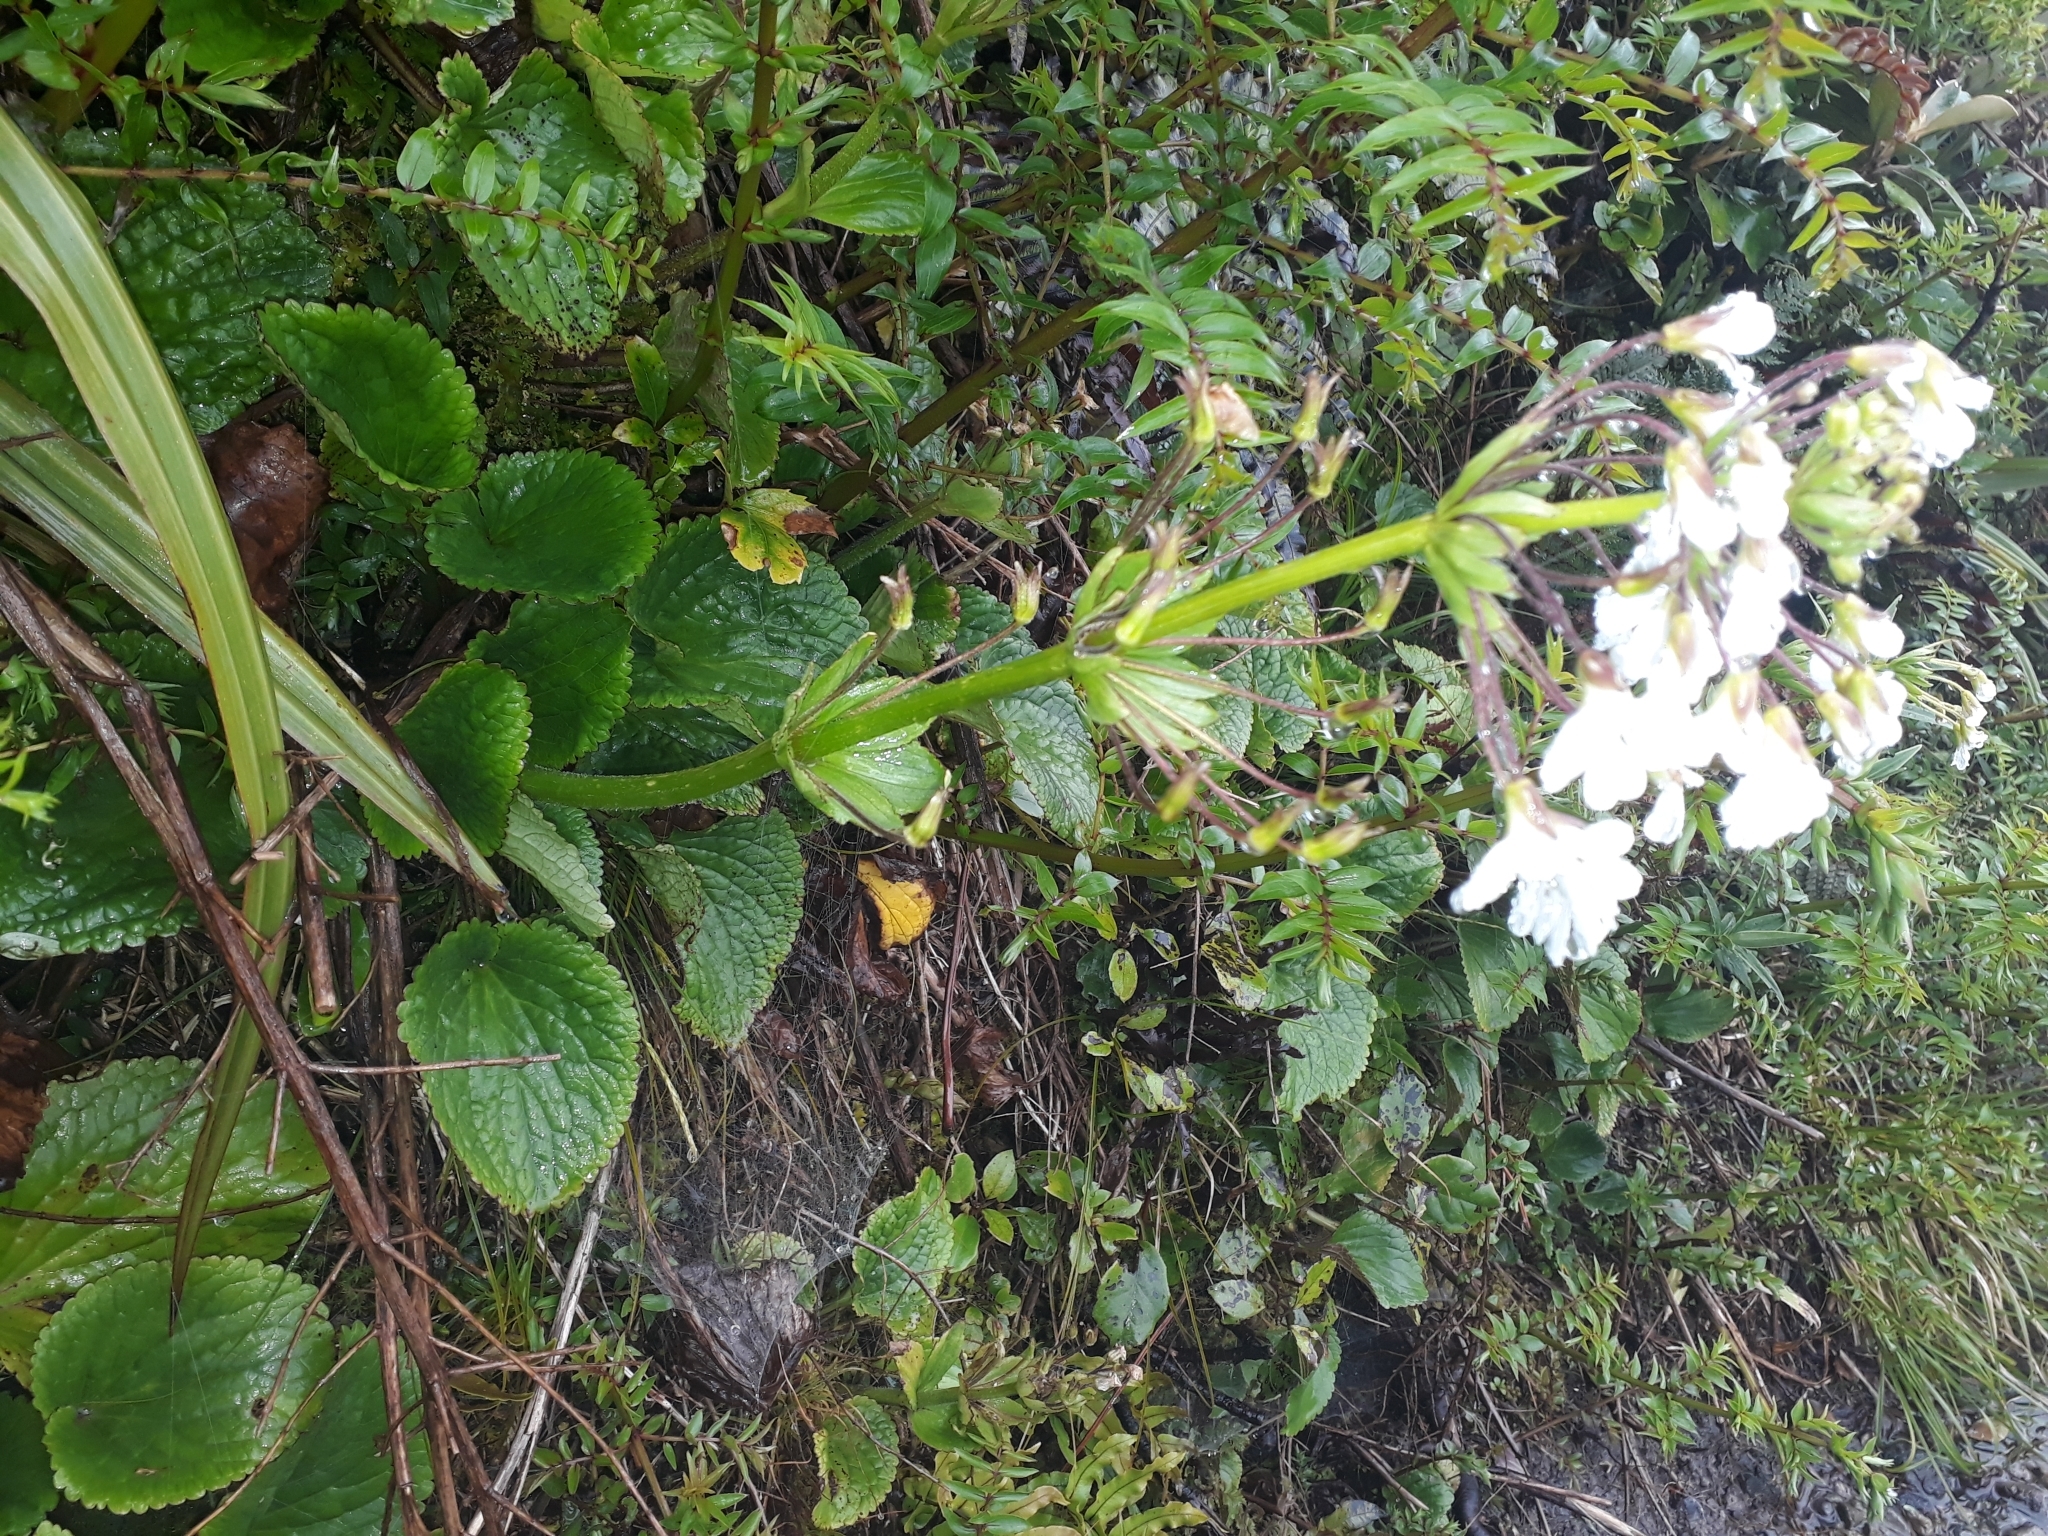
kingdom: Plantae
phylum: Tracheophyta
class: Magnoliopsida
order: Lamiales
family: Plantaginaceae
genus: Ourisia
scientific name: Ourisia macrophylla
